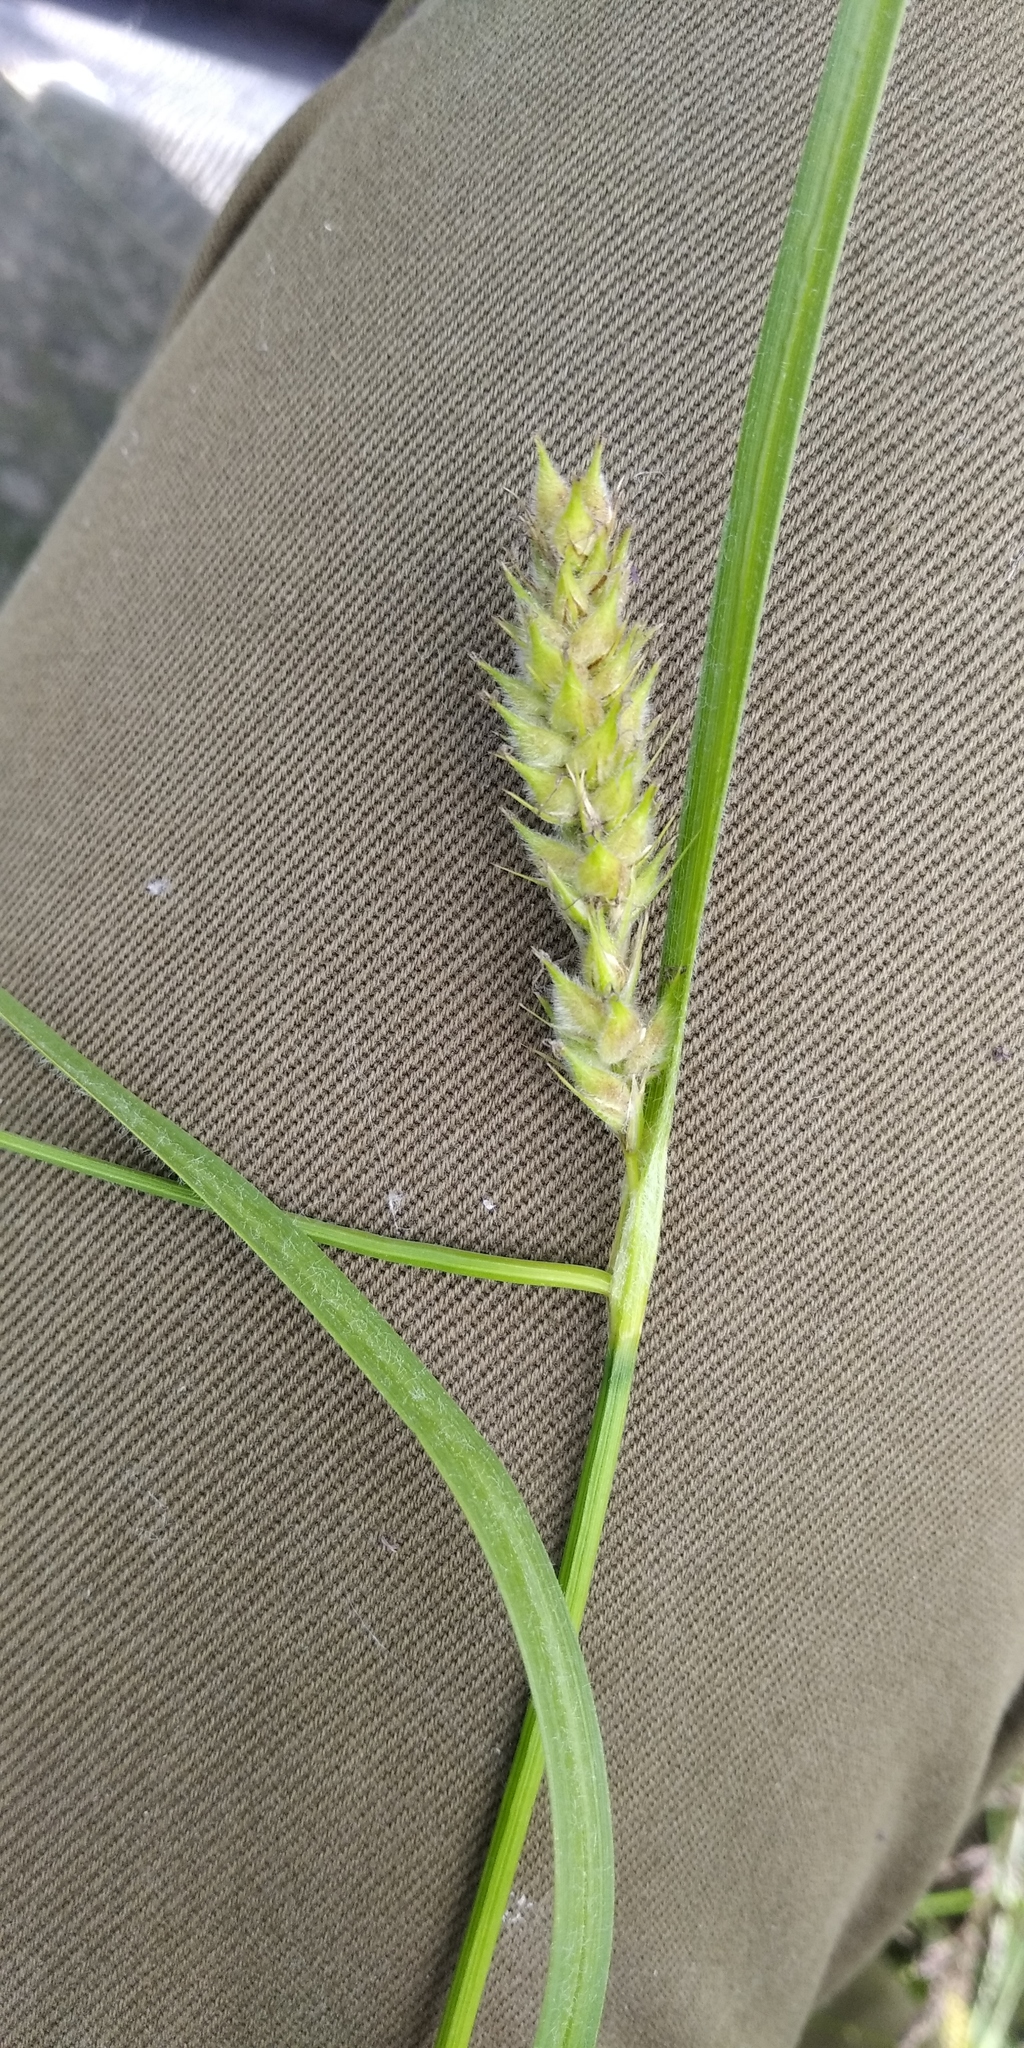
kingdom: Plantae
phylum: Tracheophyta
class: Liliopsida
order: Poales
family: Cyperaceae
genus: Carex
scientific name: Carex hirta
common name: Hairy sedge
